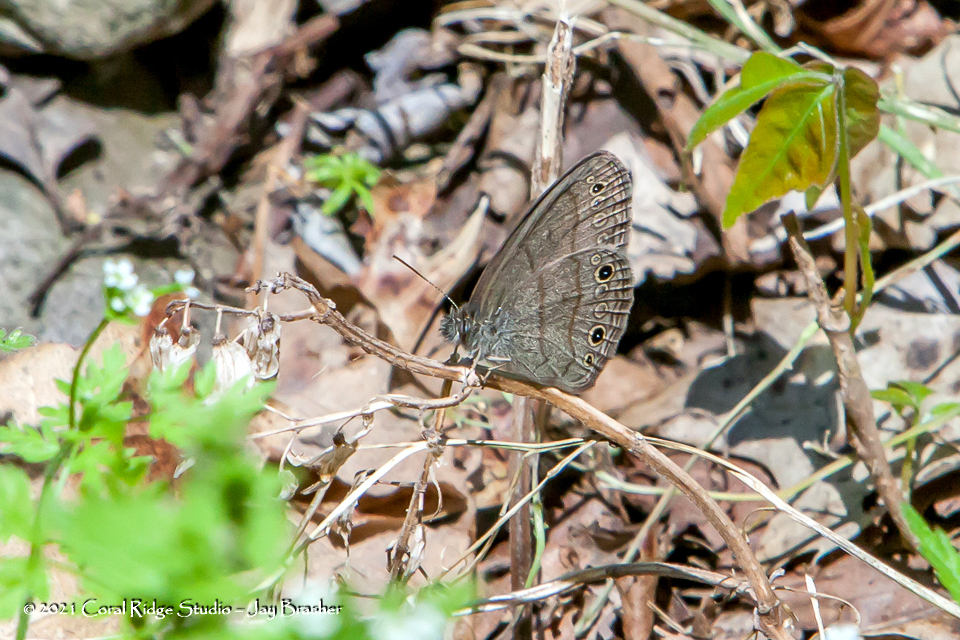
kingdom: Animalia
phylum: Arthropoda
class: Insecta
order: Lepidoptera
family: Nymphalidae
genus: Hermeuptychia
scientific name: Hermeuptychia hermes
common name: Hermes satyr
